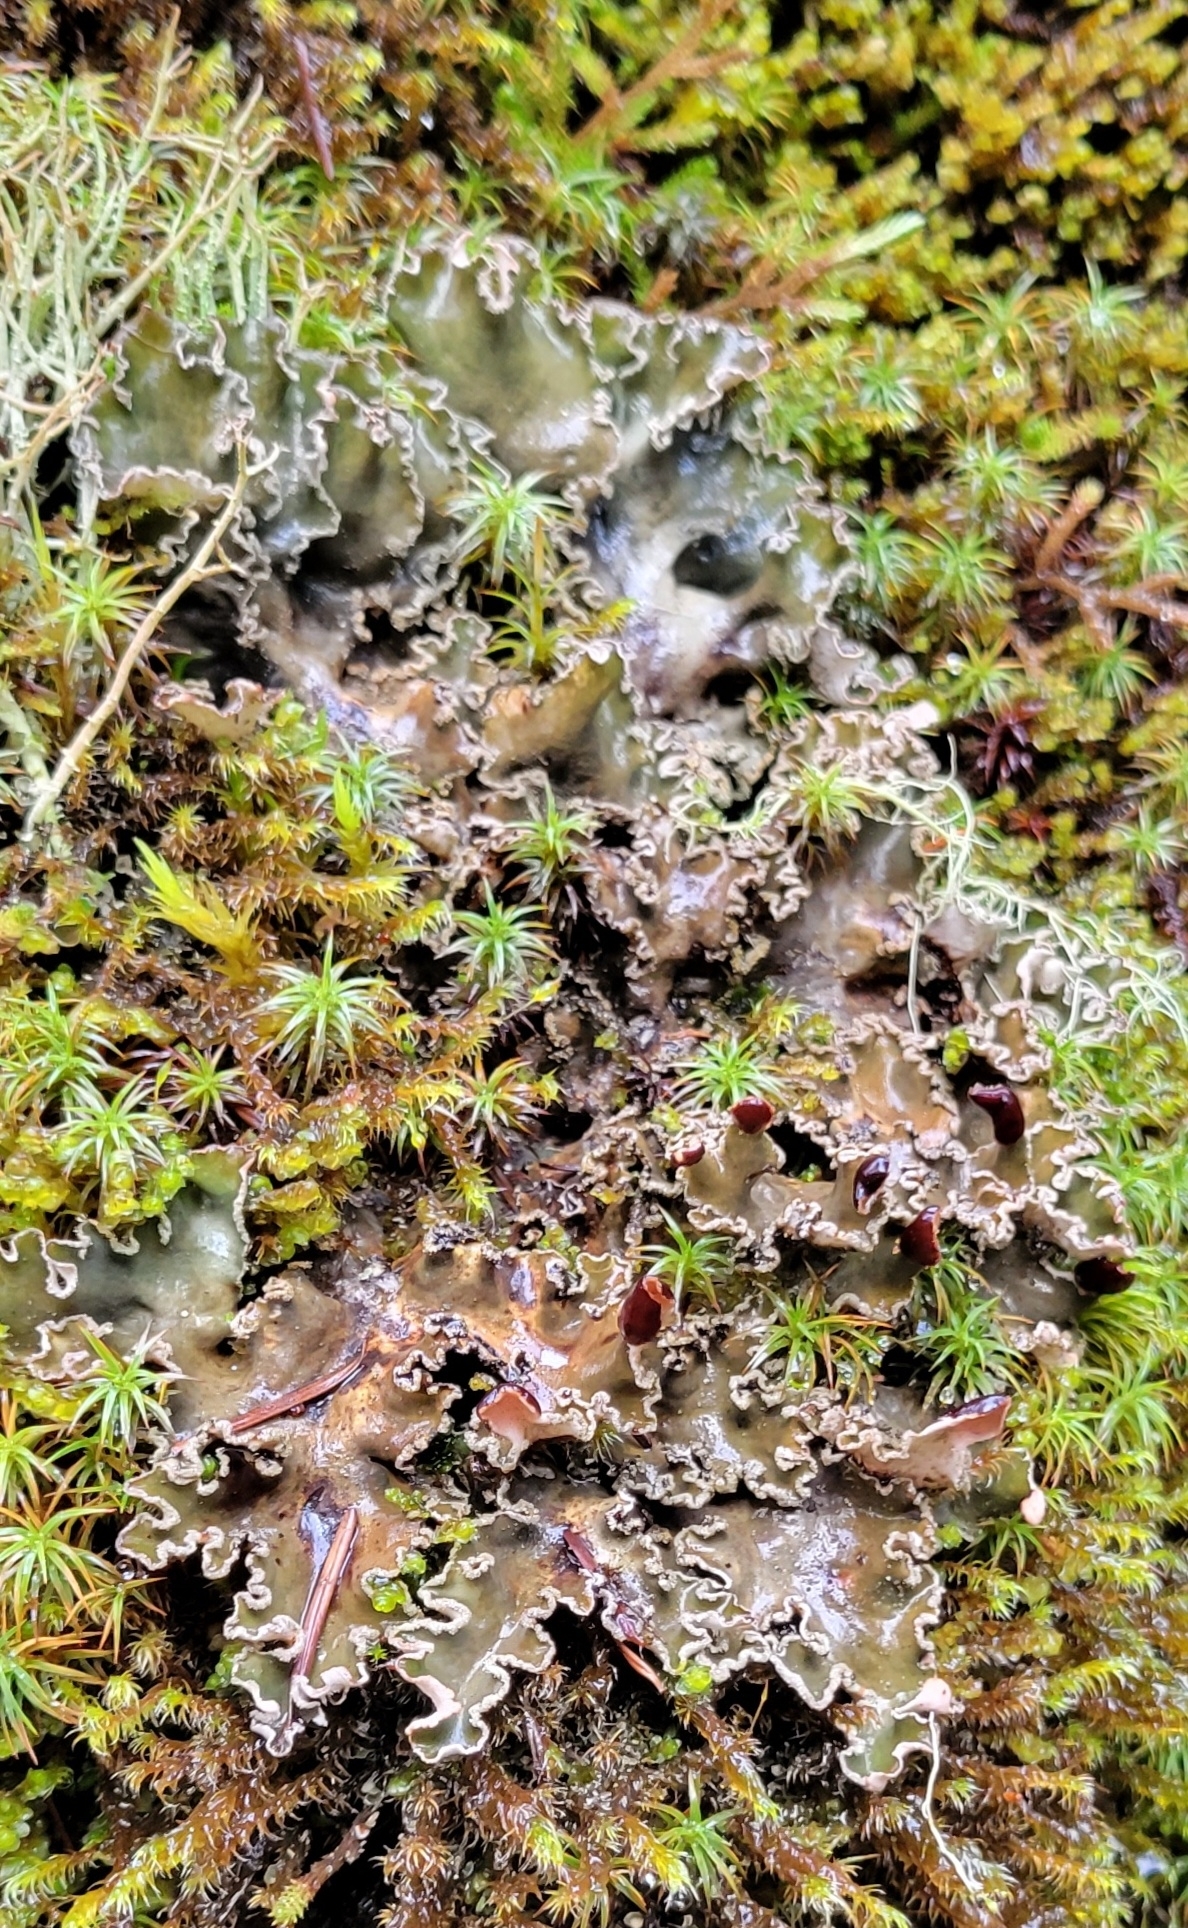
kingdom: Fungi
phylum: Ascomycota
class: Lecanoromycetes
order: Peltigerales
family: Peltigeraceae
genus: Peltigera
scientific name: Peltigera collina
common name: Gritty tree pelt lichen
